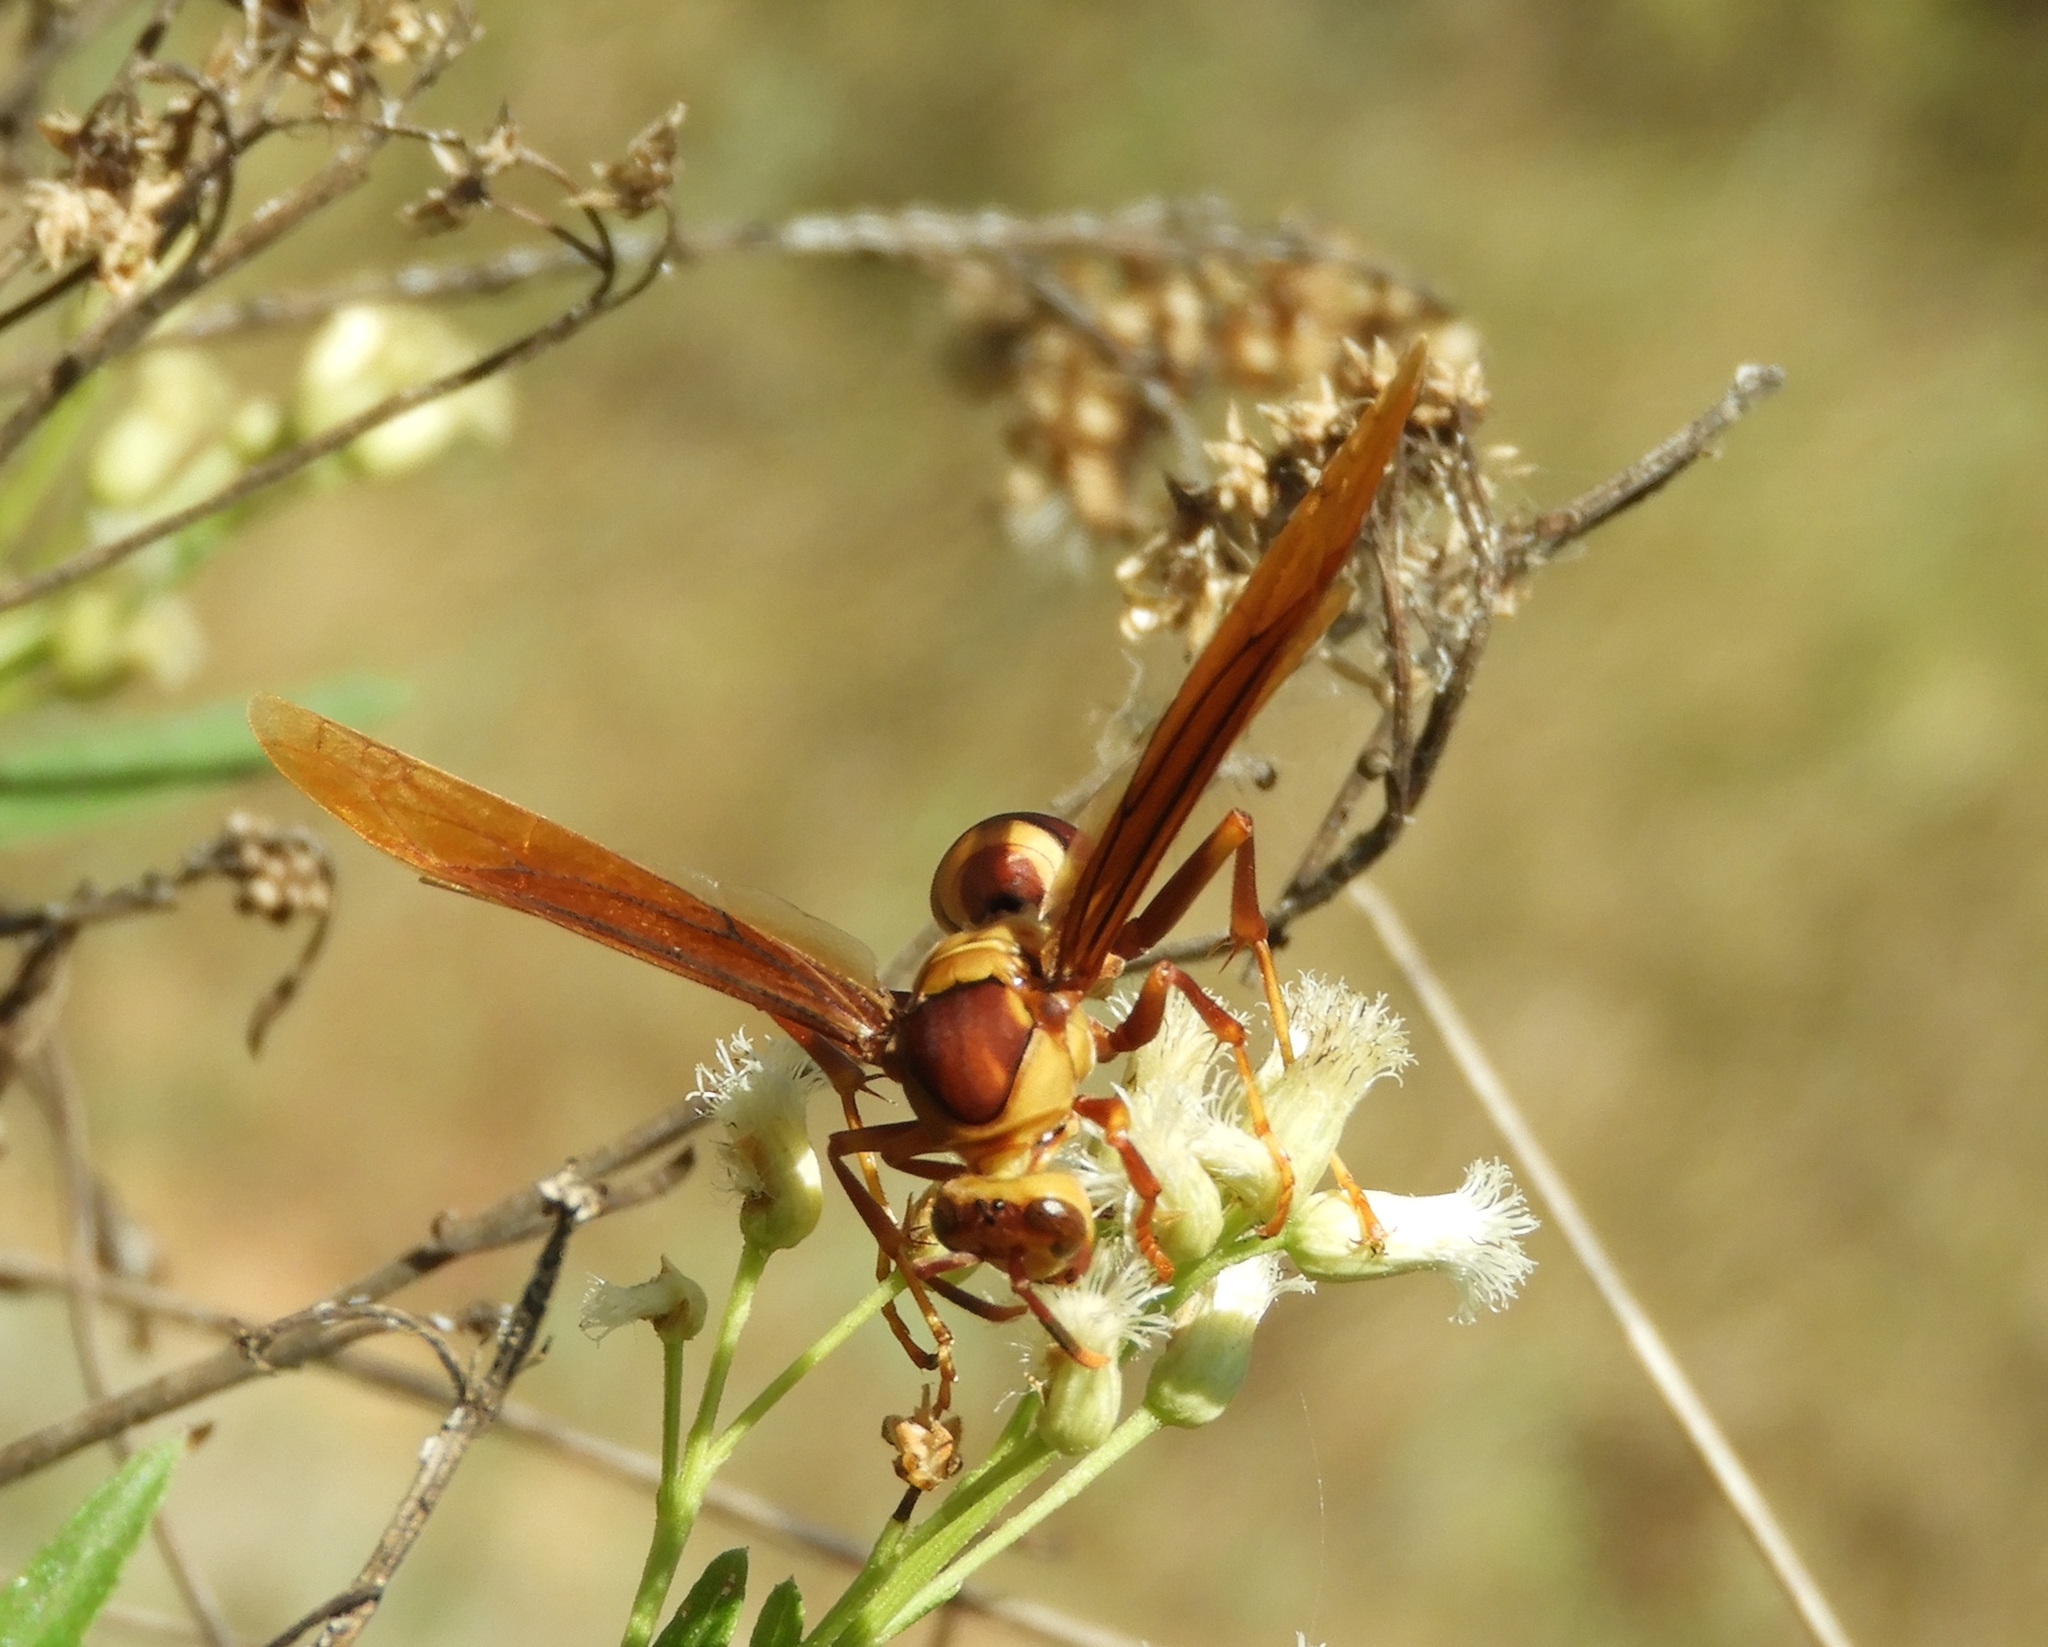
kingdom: Animalia
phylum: Arthropoda
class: Insecta
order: Hymenoptera
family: Eumenidae
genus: Polistes
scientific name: Polistes major
